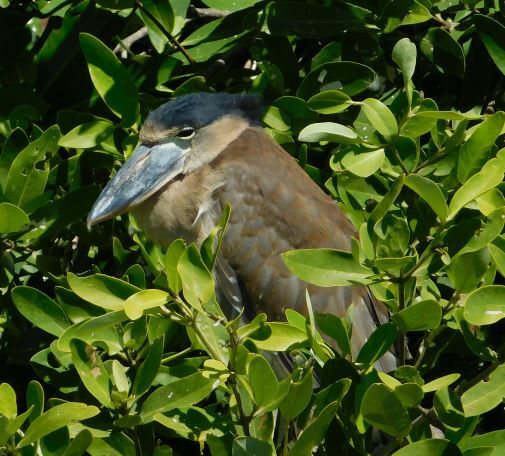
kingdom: Animalia
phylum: Chordata
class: Aves
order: Pelecaniformes
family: Ardeidae
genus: Cochlearius
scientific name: Cochlearius cochlearius
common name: Boat-billed heron
